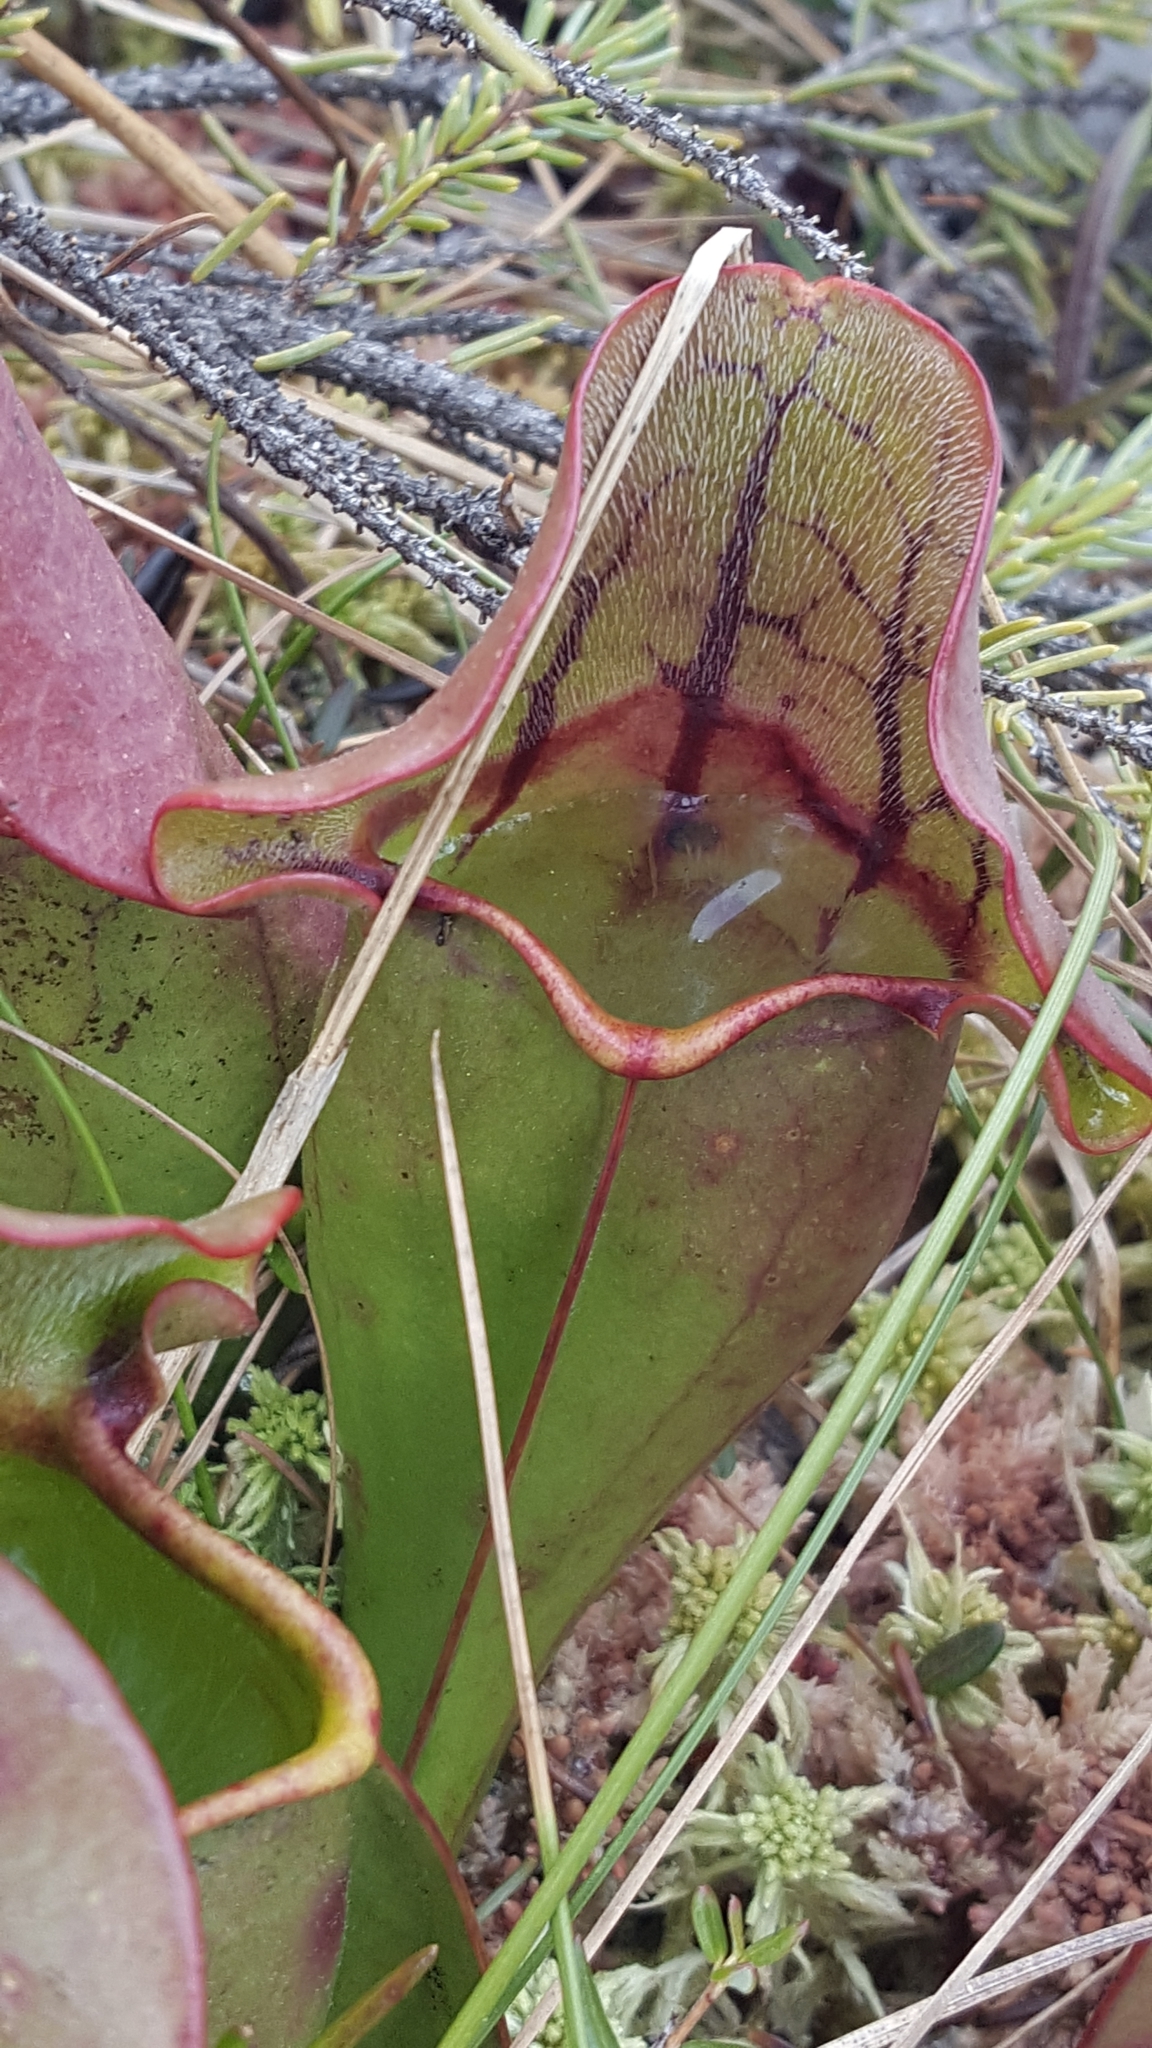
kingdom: Plantae
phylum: Tracheophyta
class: Magnoliopsida
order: Ericales
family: Sarraceniaceae
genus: Sarracenia
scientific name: Sarracenia purpurea
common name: Pitcherplant
